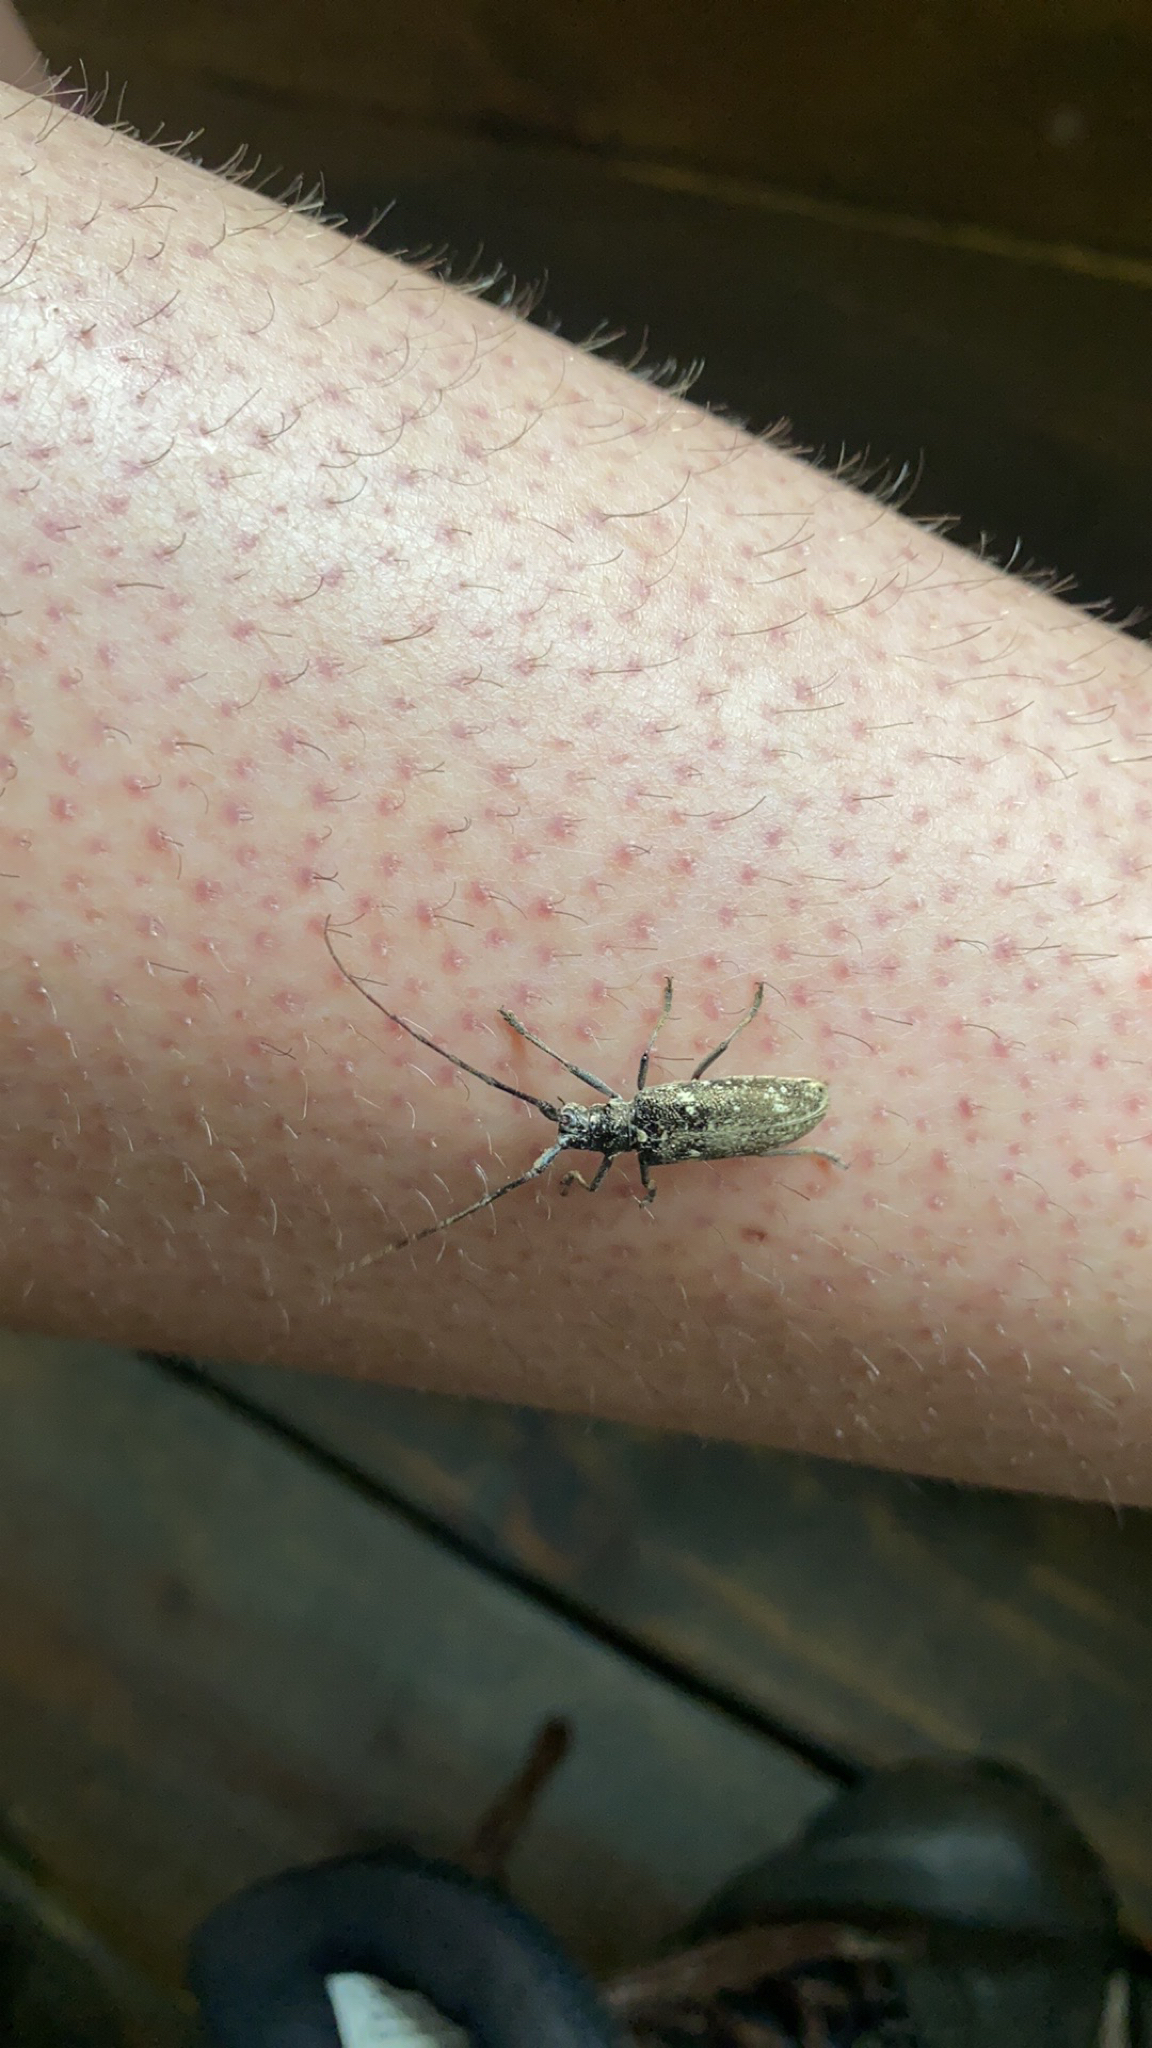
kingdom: Animalia
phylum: Arthropoda
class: Insecta
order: Coleoptera
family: Cerambycidae
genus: Monochamus
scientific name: Monochamus scutellatus
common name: White-spotted sawyer beetle
